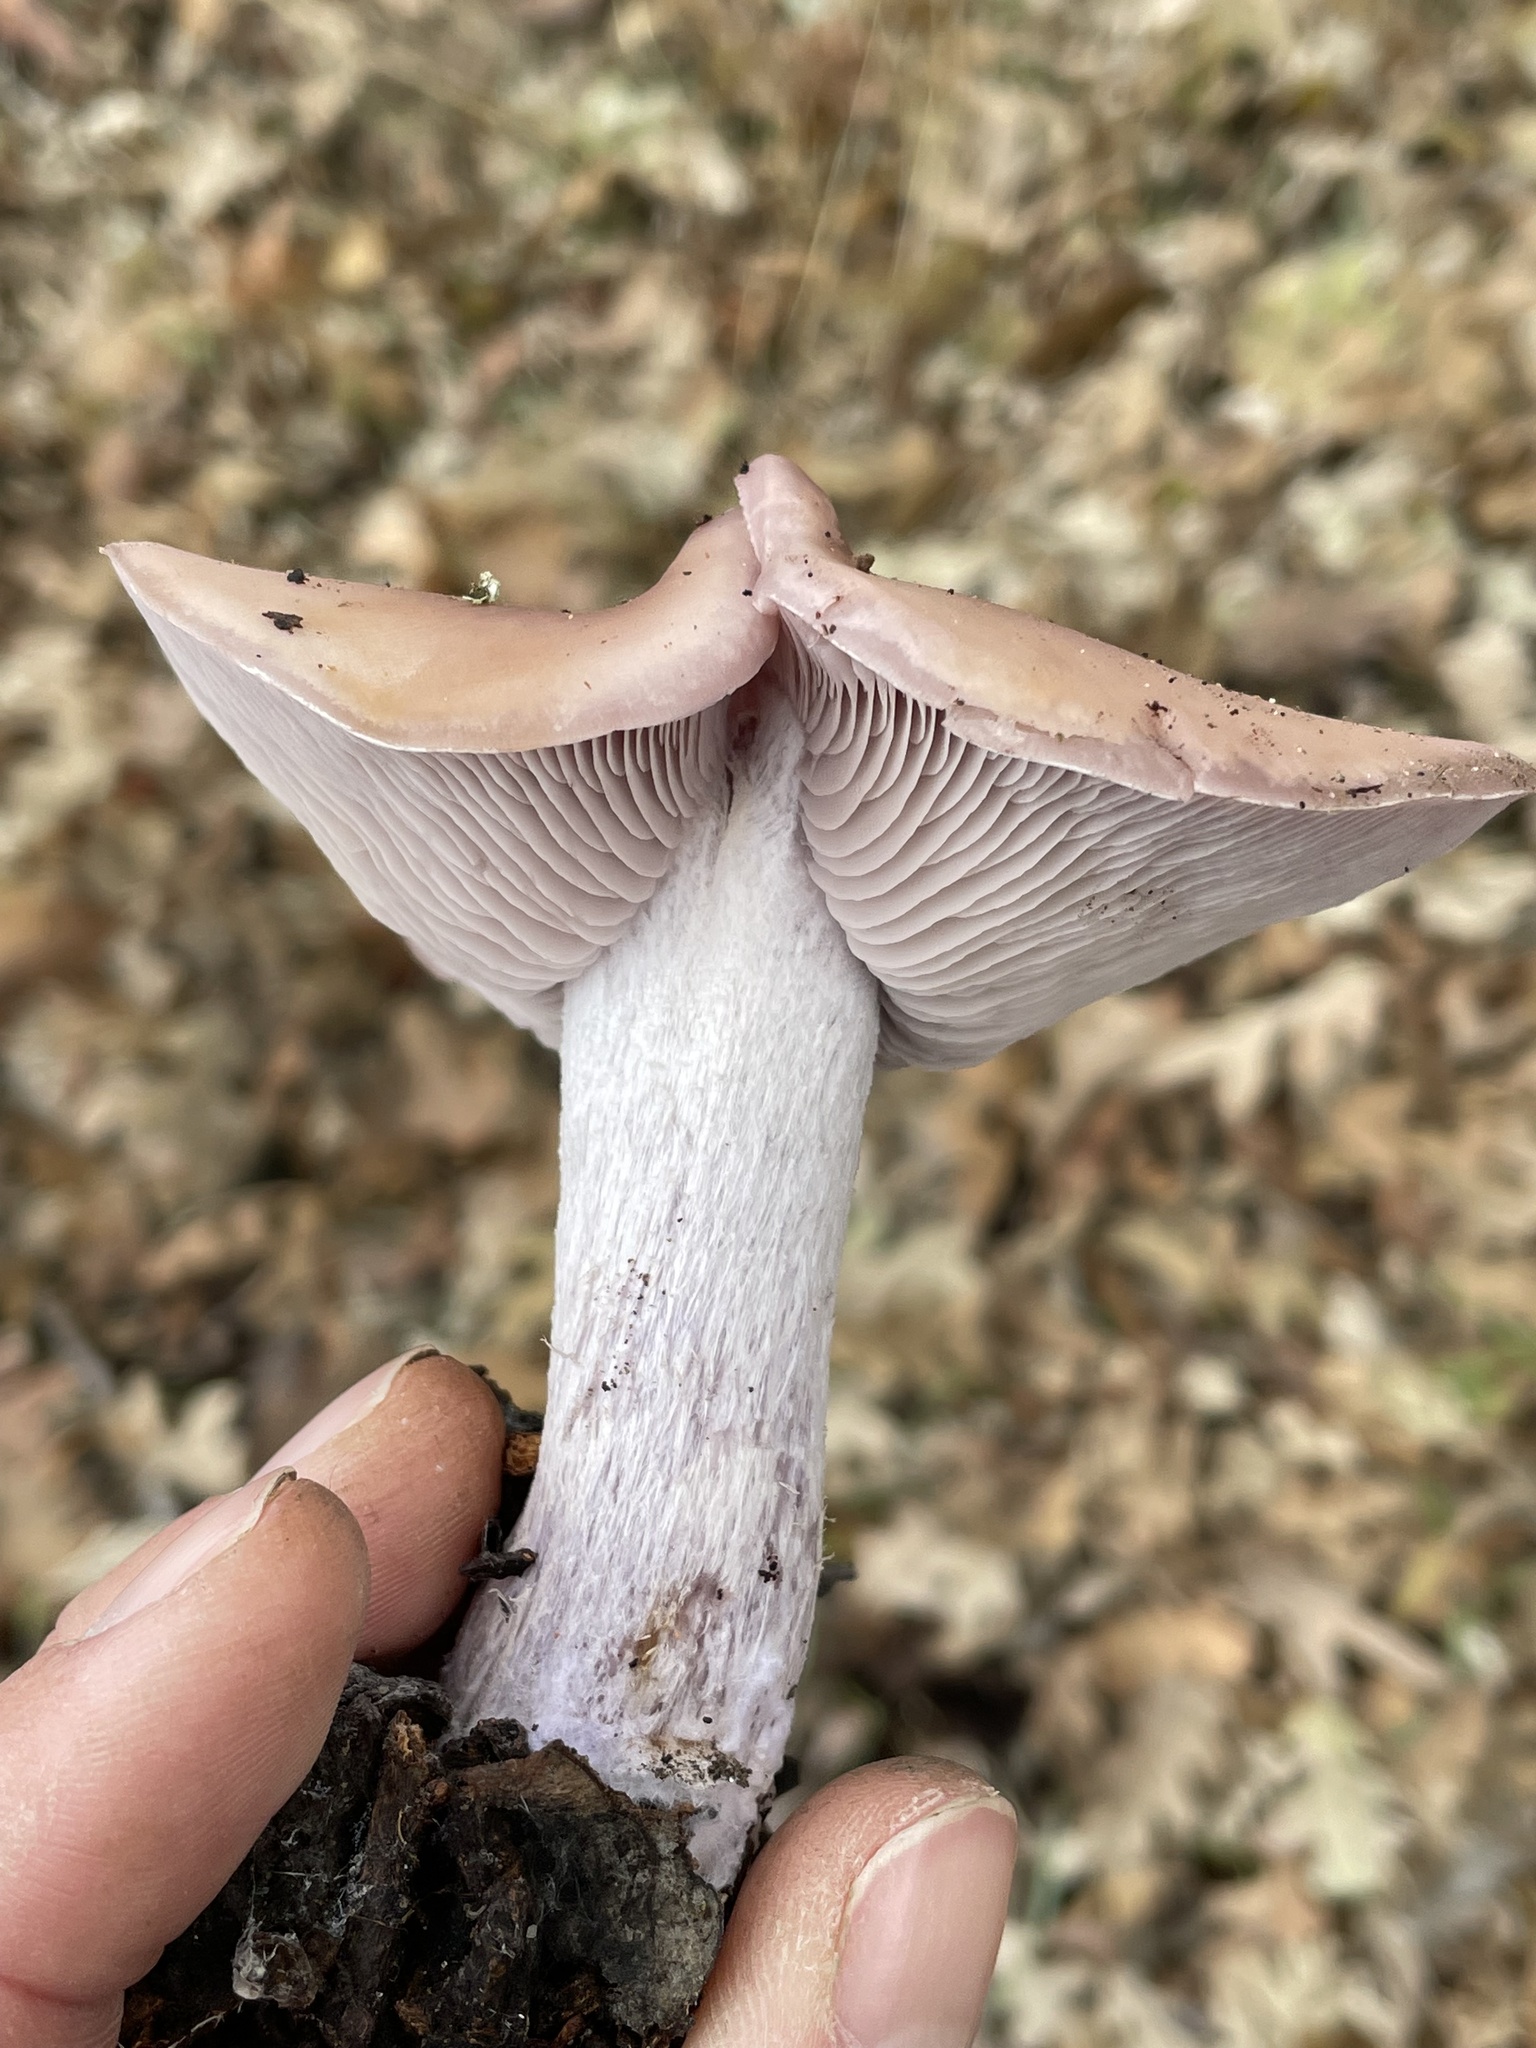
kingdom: Fungi
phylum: Basidiomycota
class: Agaricomycetes
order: Agaricales
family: Tricholomataceae
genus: Collybia
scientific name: Collybia
